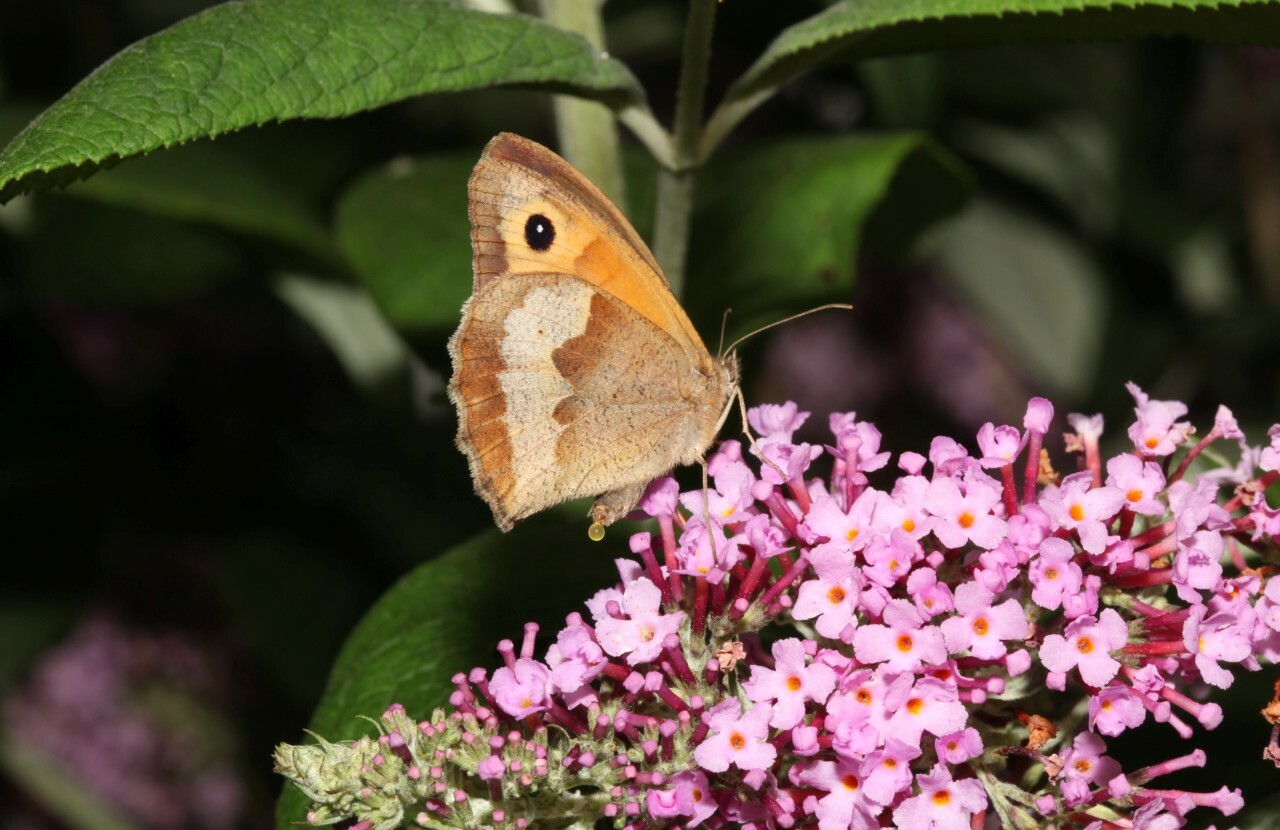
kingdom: Animalia
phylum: Arthropoda
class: Insecta
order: Lepidoptera
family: Nymphalidae
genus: Maniola
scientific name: Maniola jurtina
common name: Meadow brown
